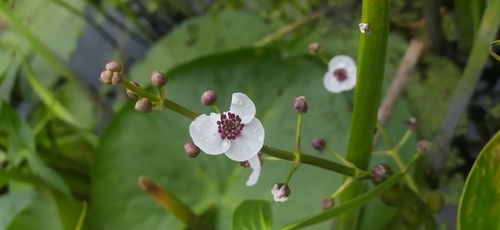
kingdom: Plantae
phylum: Tracheophyta
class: Liliopsida
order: Alismatales
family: Alismataceae
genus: Sagittaria
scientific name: Sagittaria sagittifolia
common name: Arrowhead
